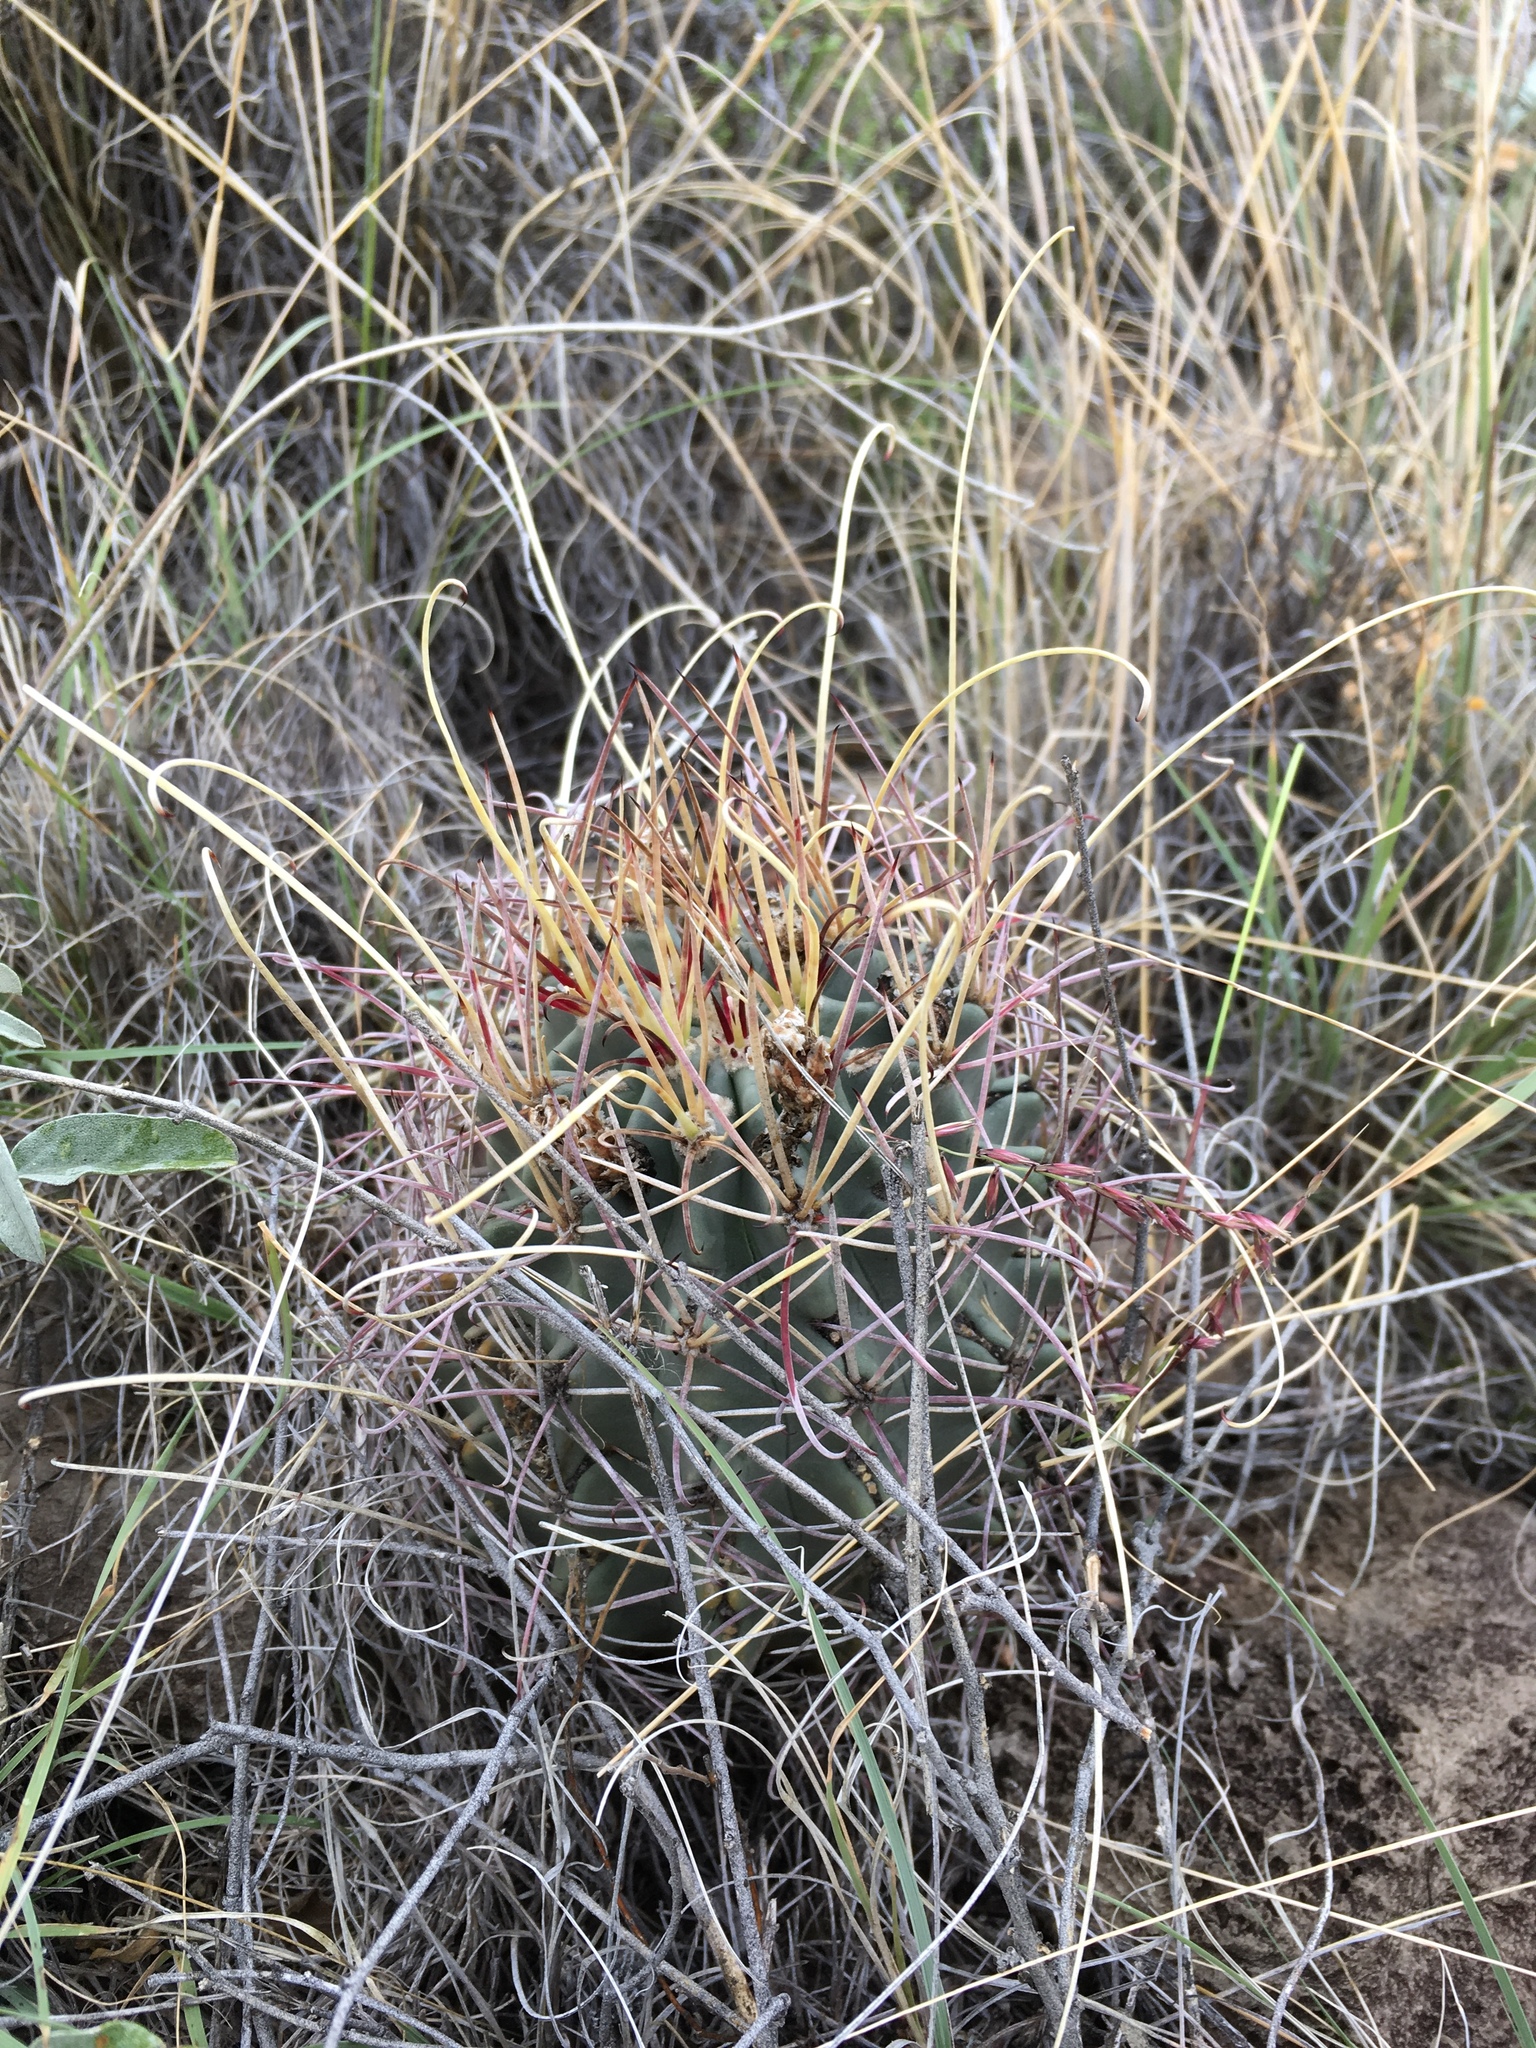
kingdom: Plantae
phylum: Tracheophyta
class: Magnoliopsida
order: Caryophyllales
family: Cactaceae
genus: Ferocactus
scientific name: Ferocactus uncinatus
